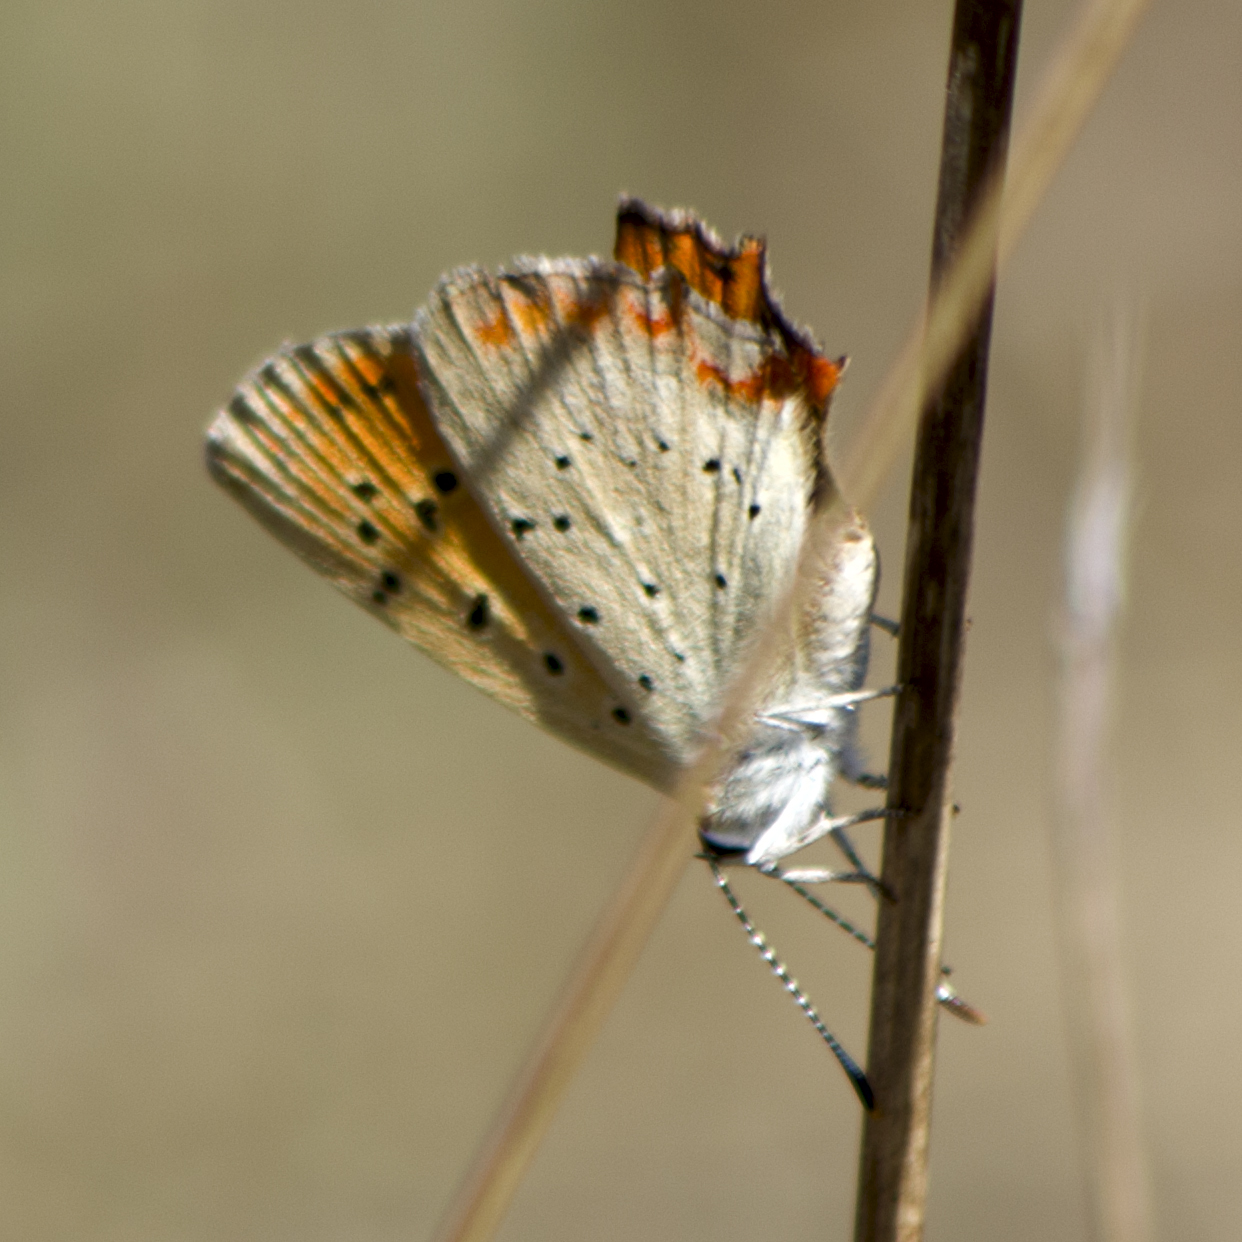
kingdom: Animalia
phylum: Arthropoda
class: Insecta
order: Lepidoptera
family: Lycaenidae
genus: Polyommatus
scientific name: Polyommatus ottomanus
